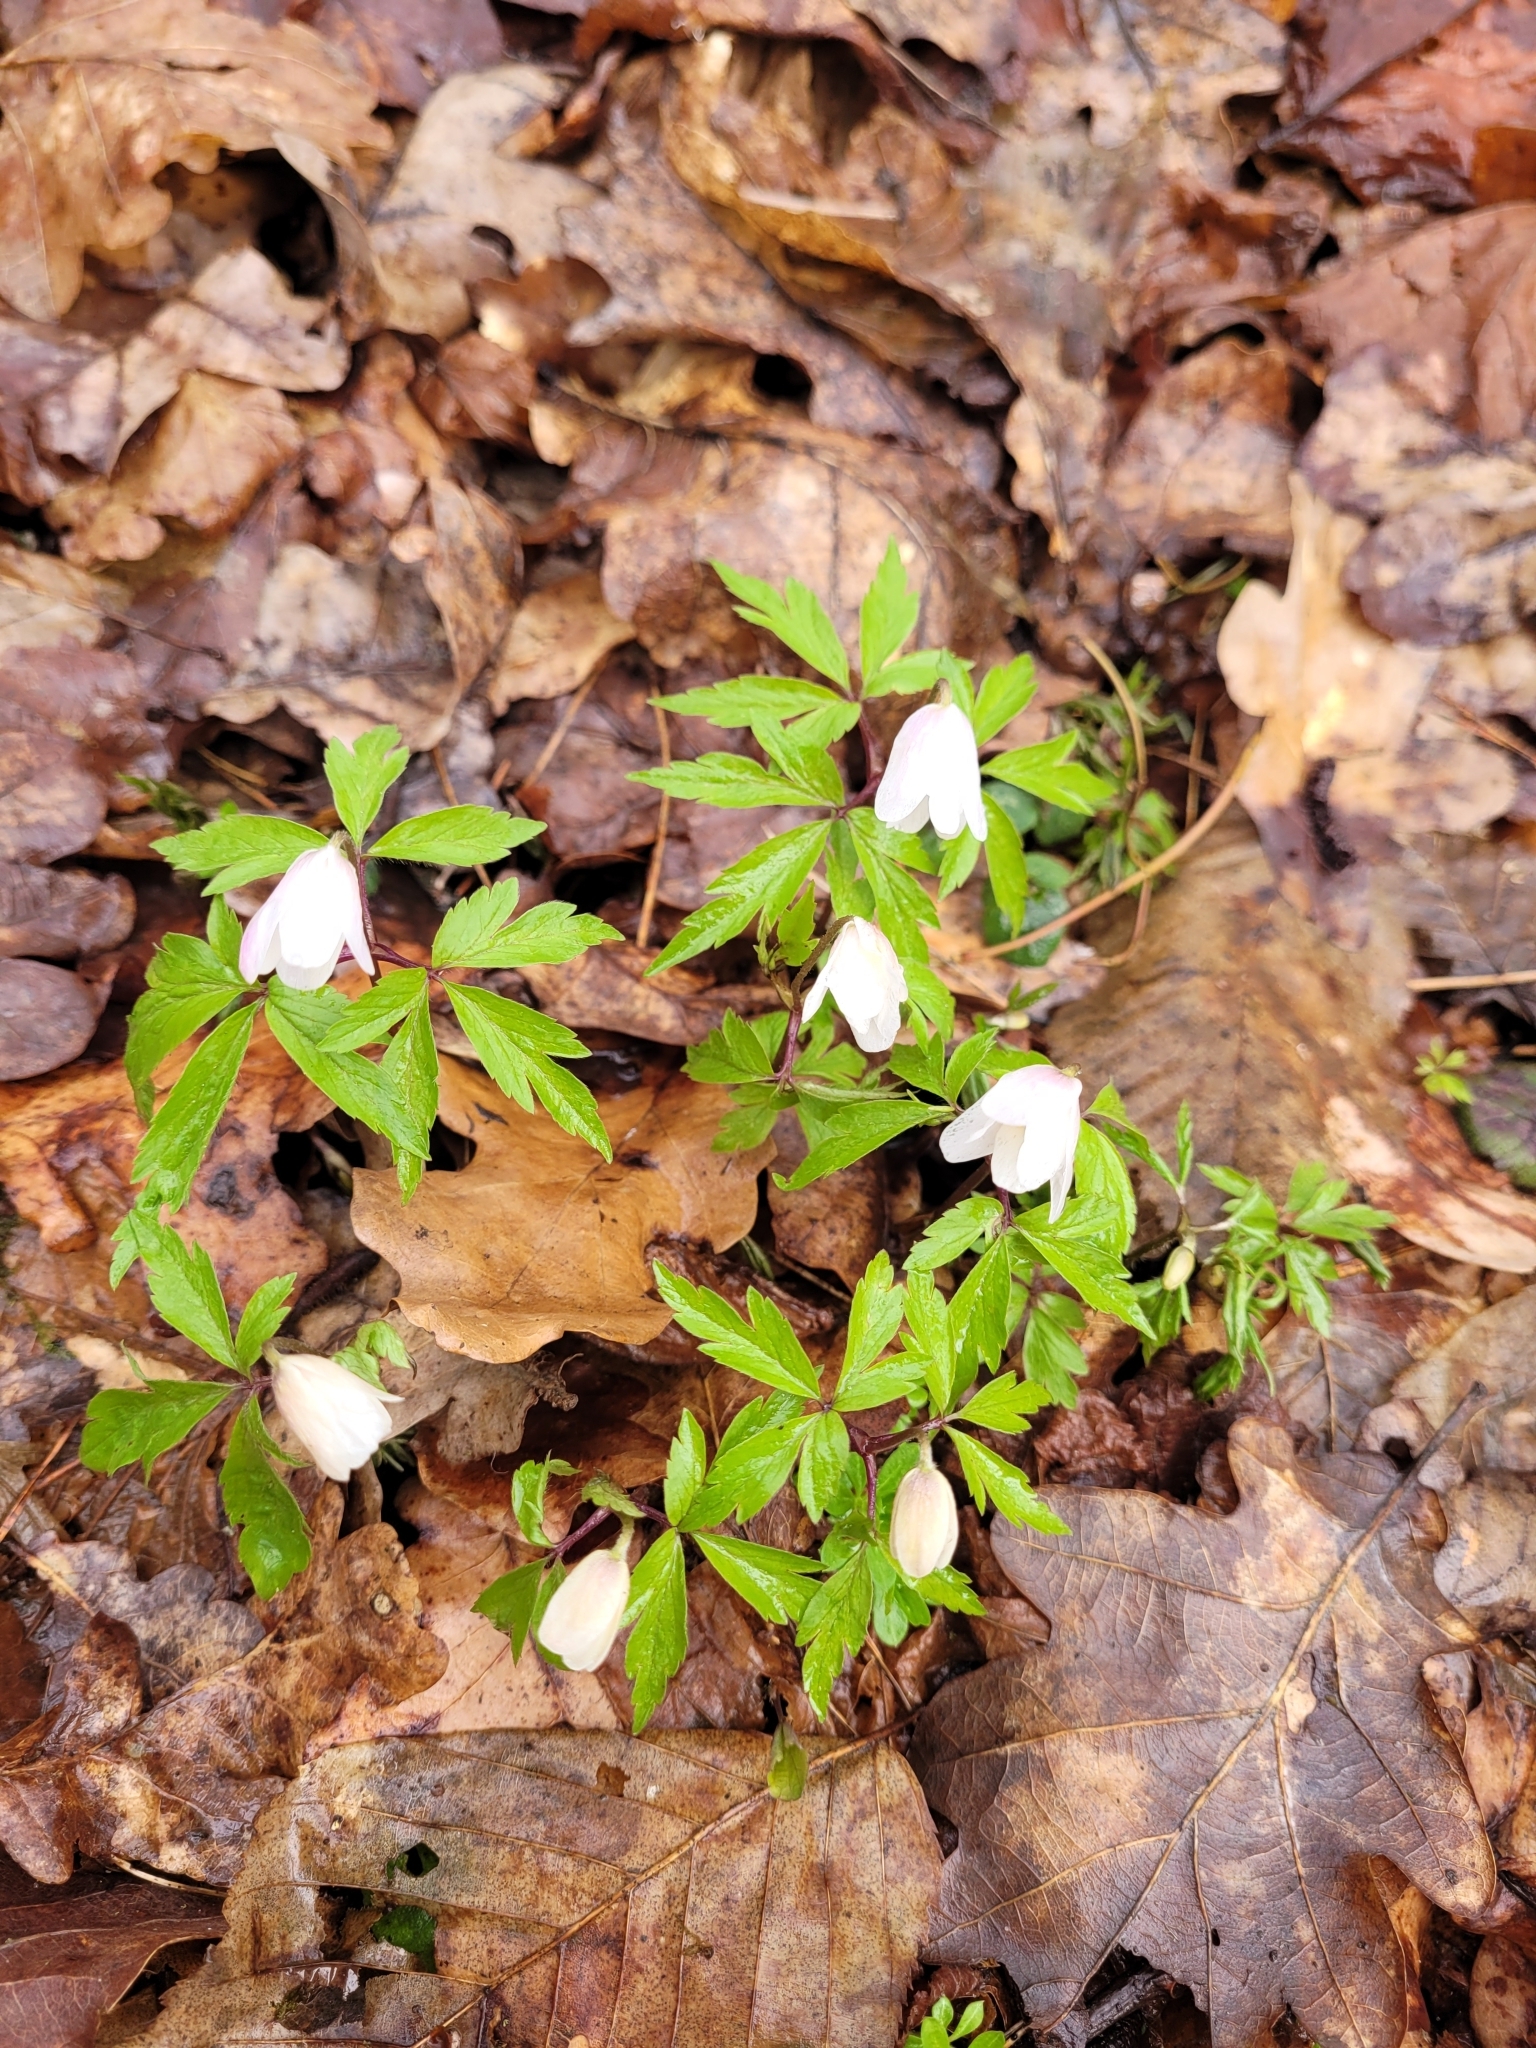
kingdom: Plantae
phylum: Tracheophyta
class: Magnoliopsida
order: Ranunculales
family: Ranunculaceae
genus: Anemone
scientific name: Anemone nemorosa
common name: Wood anemone
